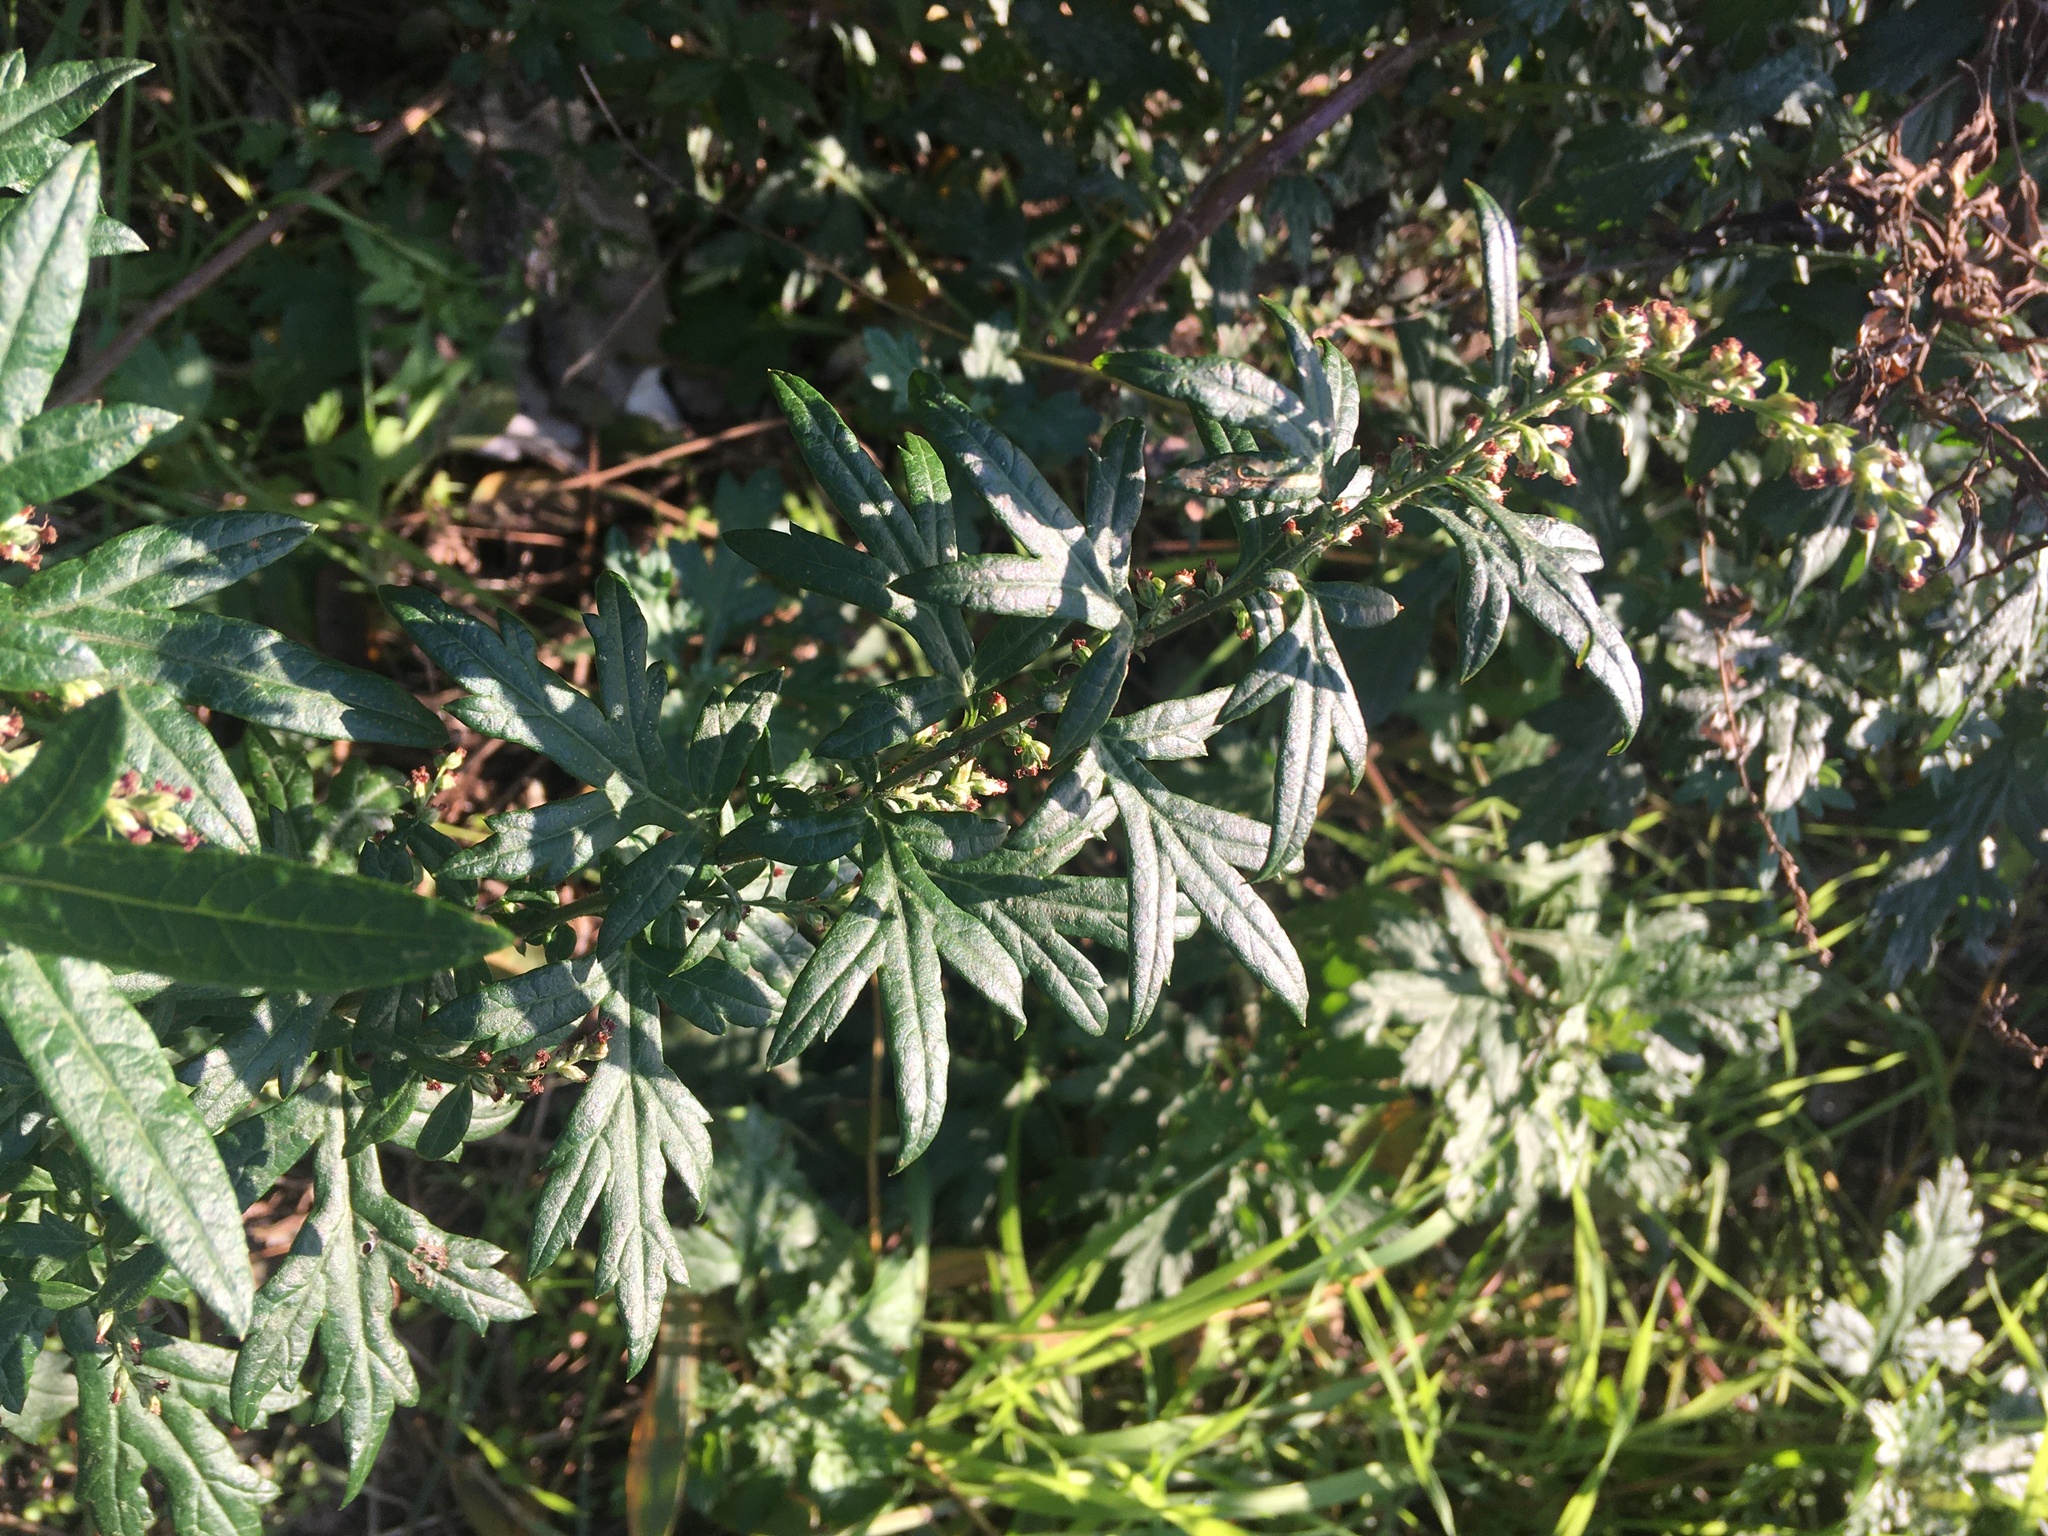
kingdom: Plantae
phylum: Tracheophyta
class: Magnoliopsida
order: Asterales
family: Asteraceae
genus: Artemisia
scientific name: Artemisia vulgaris
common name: Mugwort
